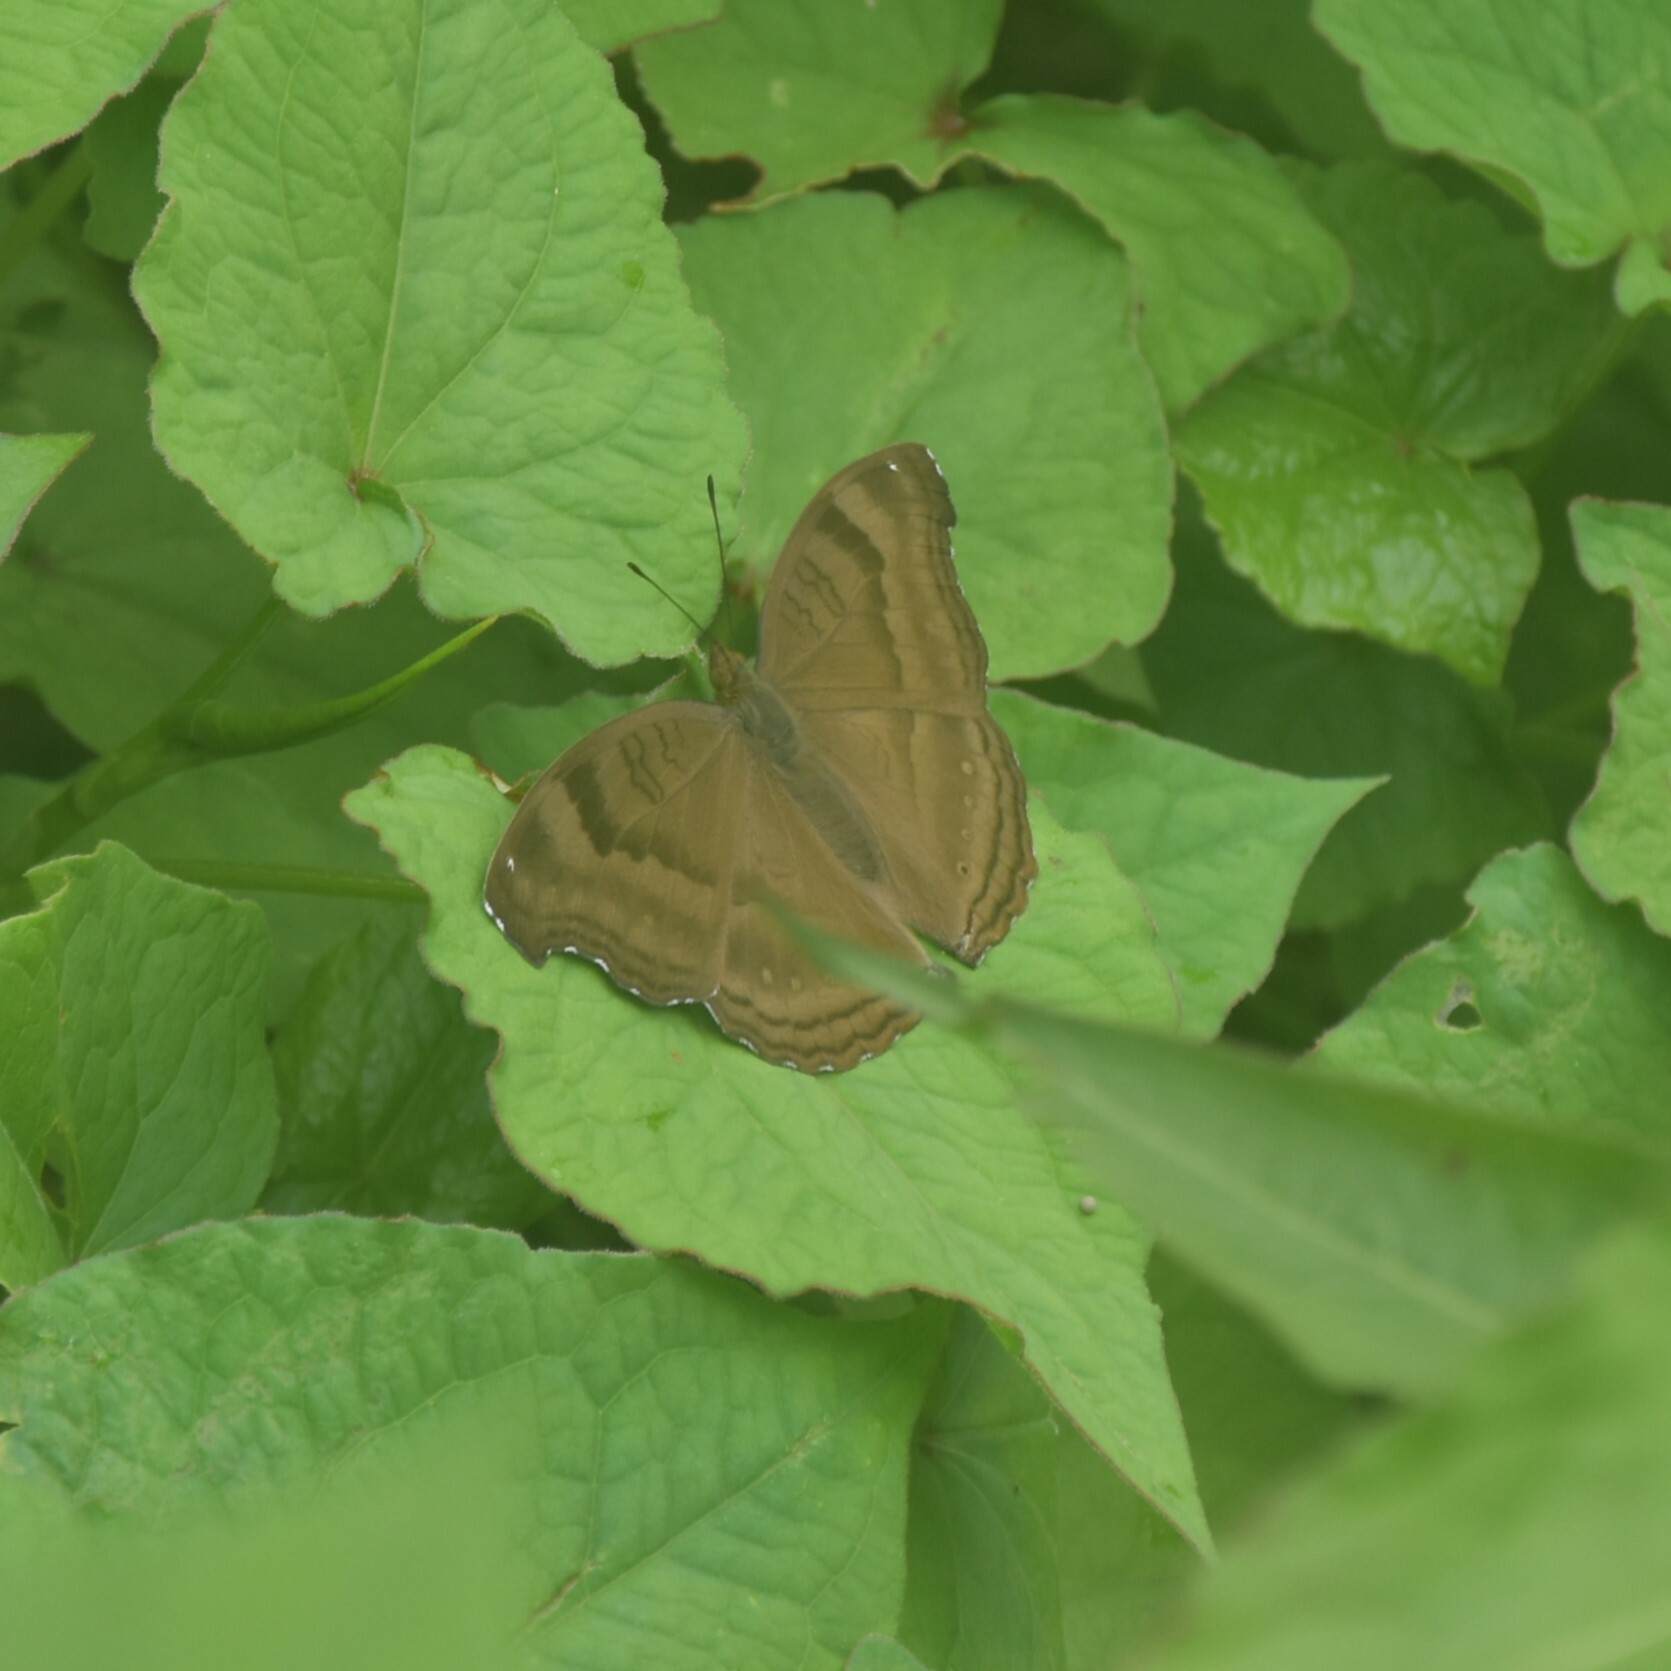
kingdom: Animalia
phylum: Arthropoda
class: Insecta
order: Lepidoptera
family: Nymphalidae
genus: Junonia
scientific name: Junonia iphita
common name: Chocolate pansy
